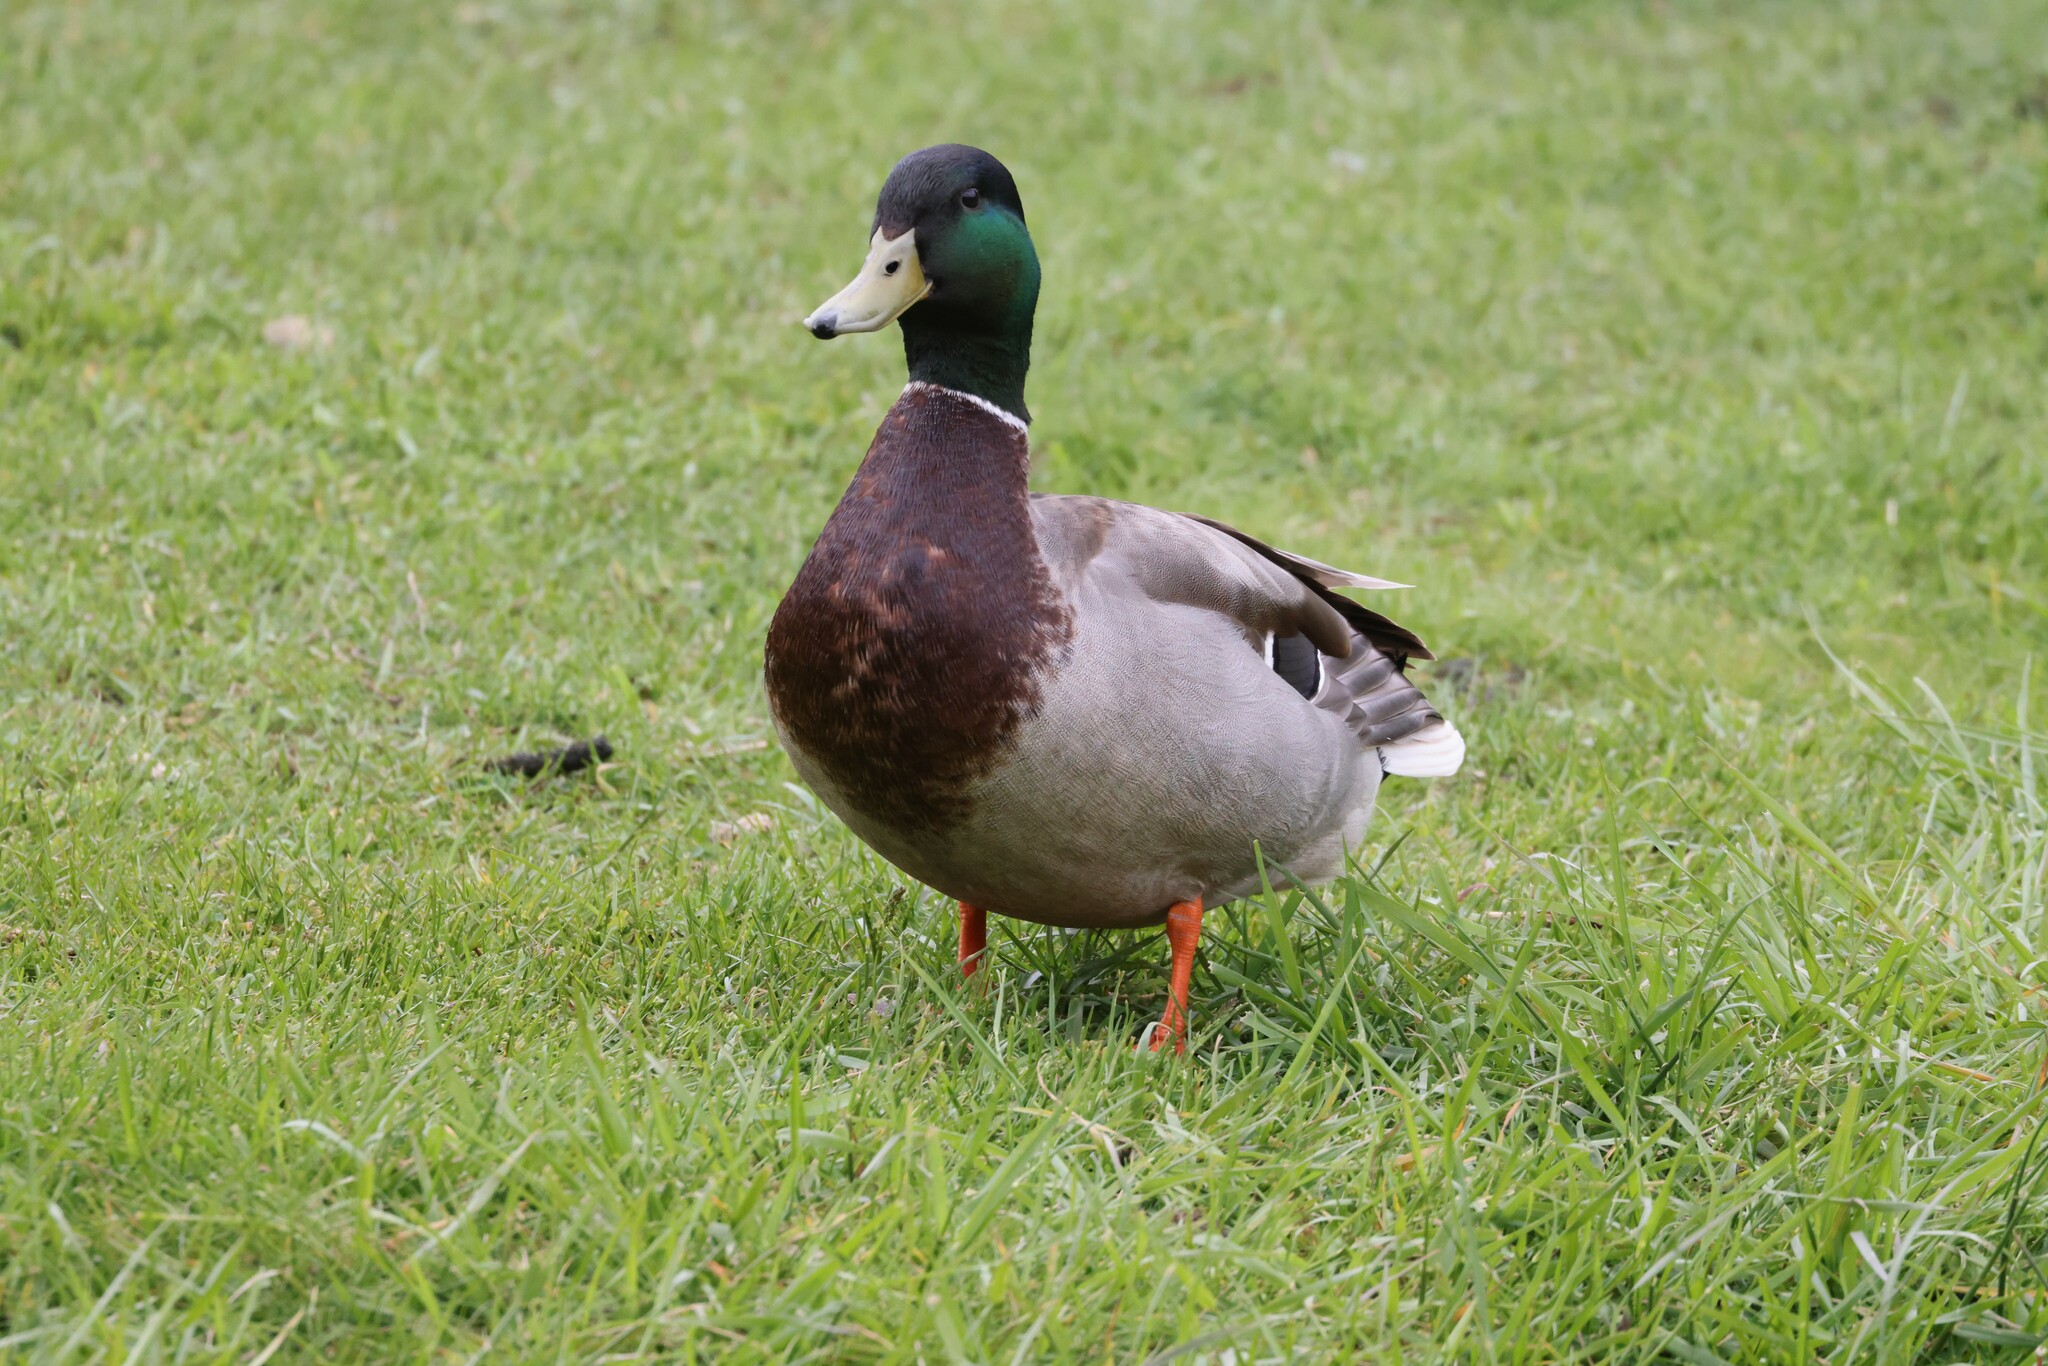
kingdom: Animalia
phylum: Chordata
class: Aves
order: Anseriformes
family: Anatidae
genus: Anas
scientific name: Anas platyrhynchos
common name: Mallard
